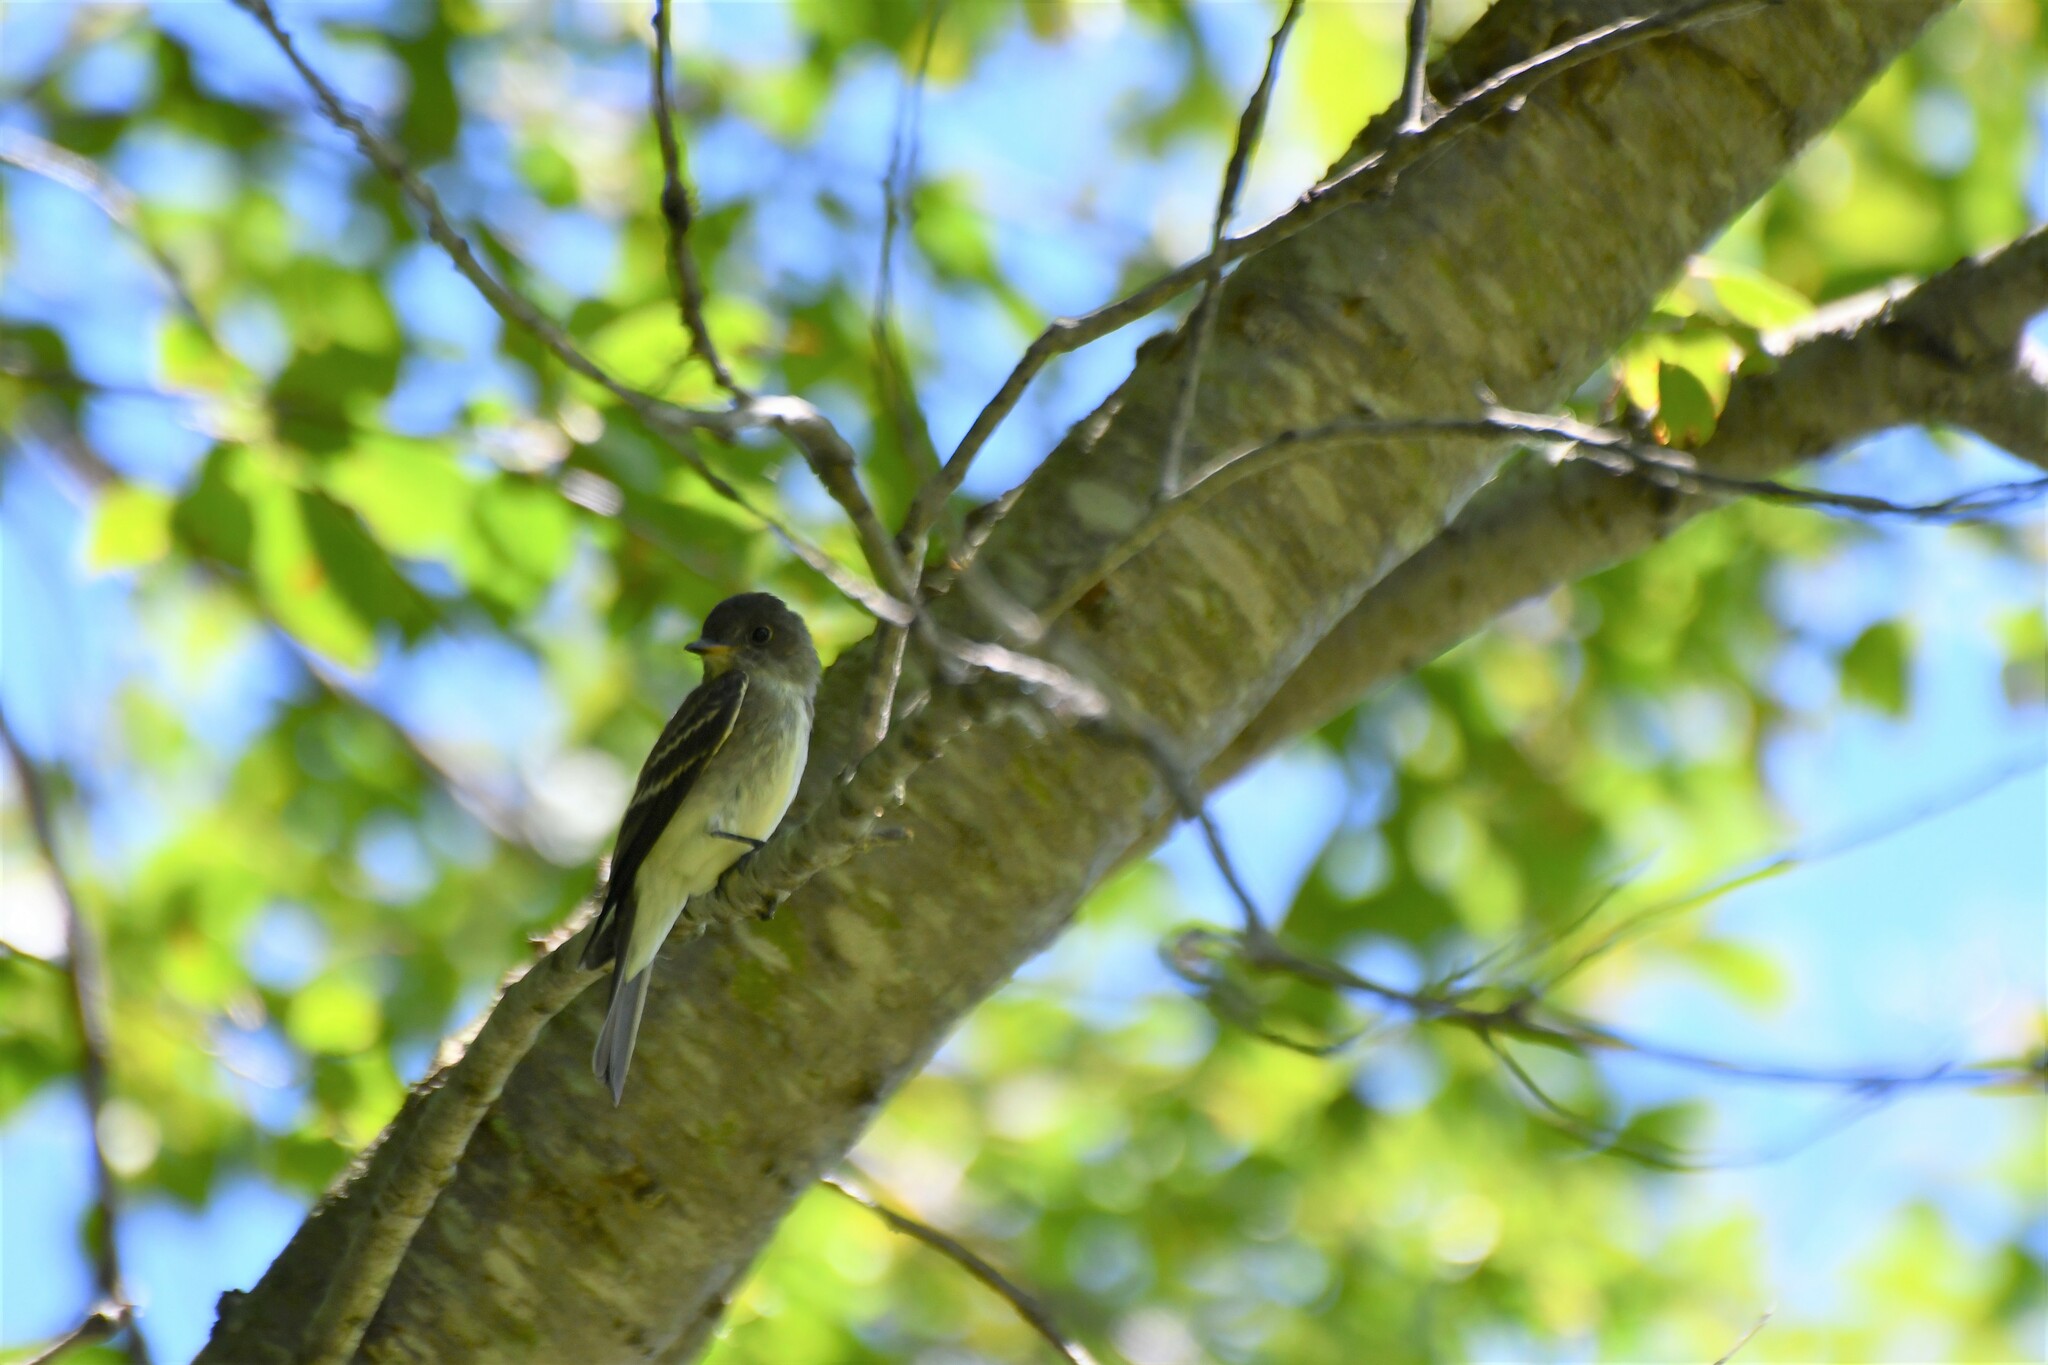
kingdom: Animalia
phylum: Chordata
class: Aves
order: Passeriformes
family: Tyrannidae
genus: Contopus
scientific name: Contopus virens
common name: Eastern wood-pewee
